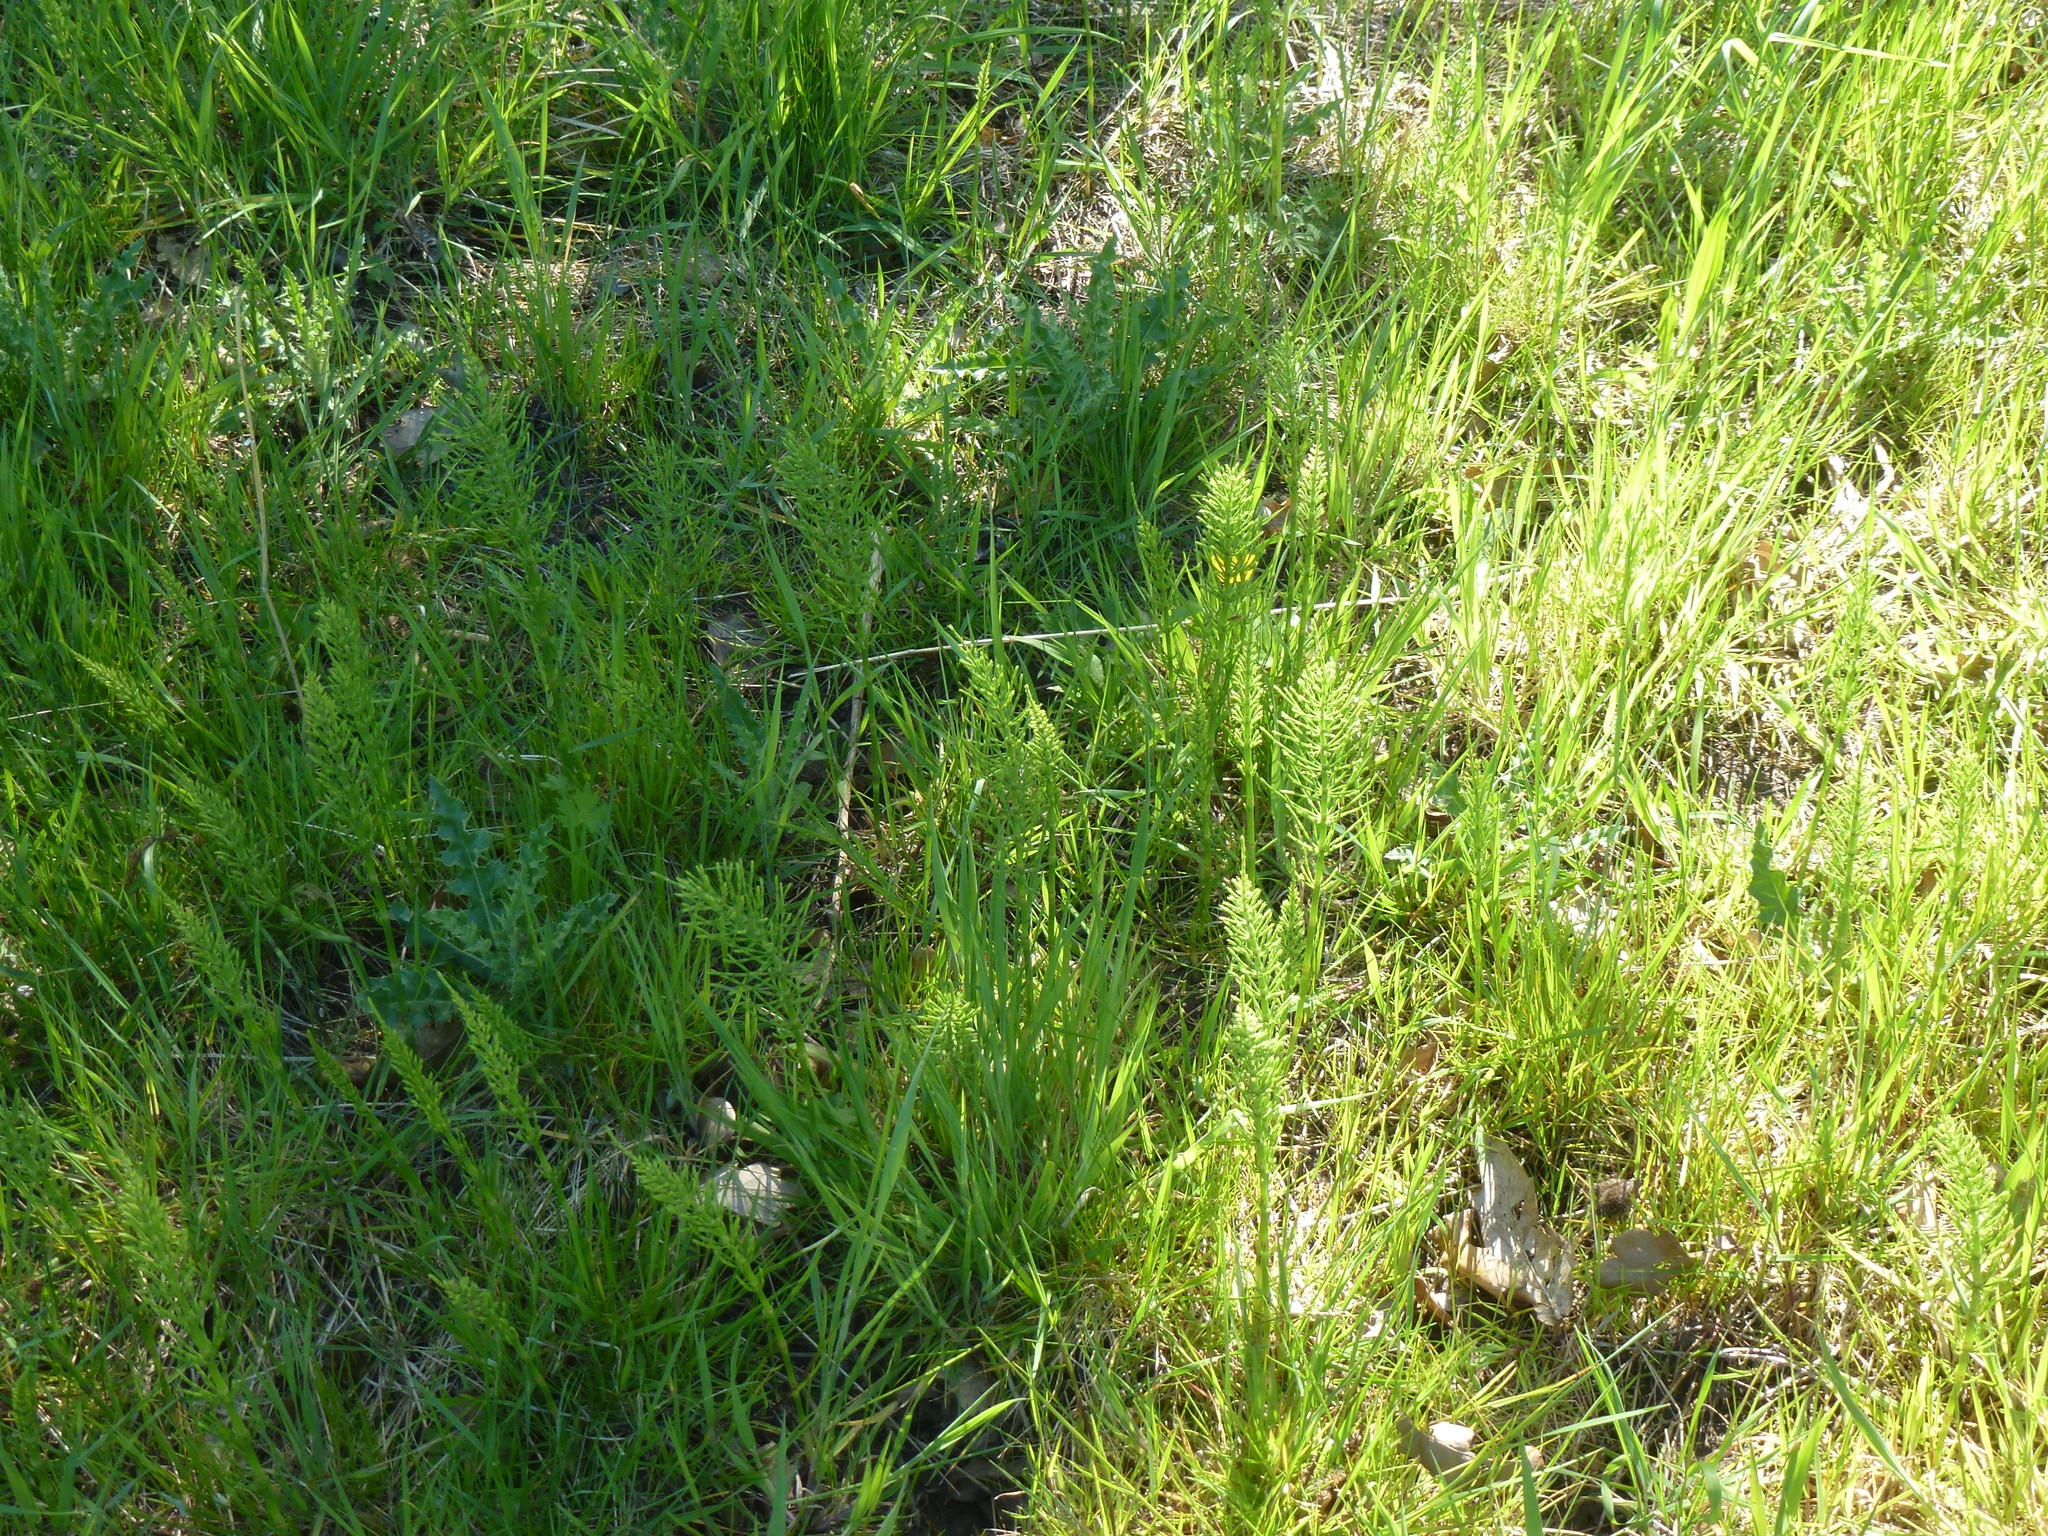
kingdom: Plantae
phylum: Tracheophyta
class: Polypodiopsida
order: Equisetales
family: Equisetaceae
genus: Equisetum
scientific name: Equisetum arvense
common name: Field horsetail
